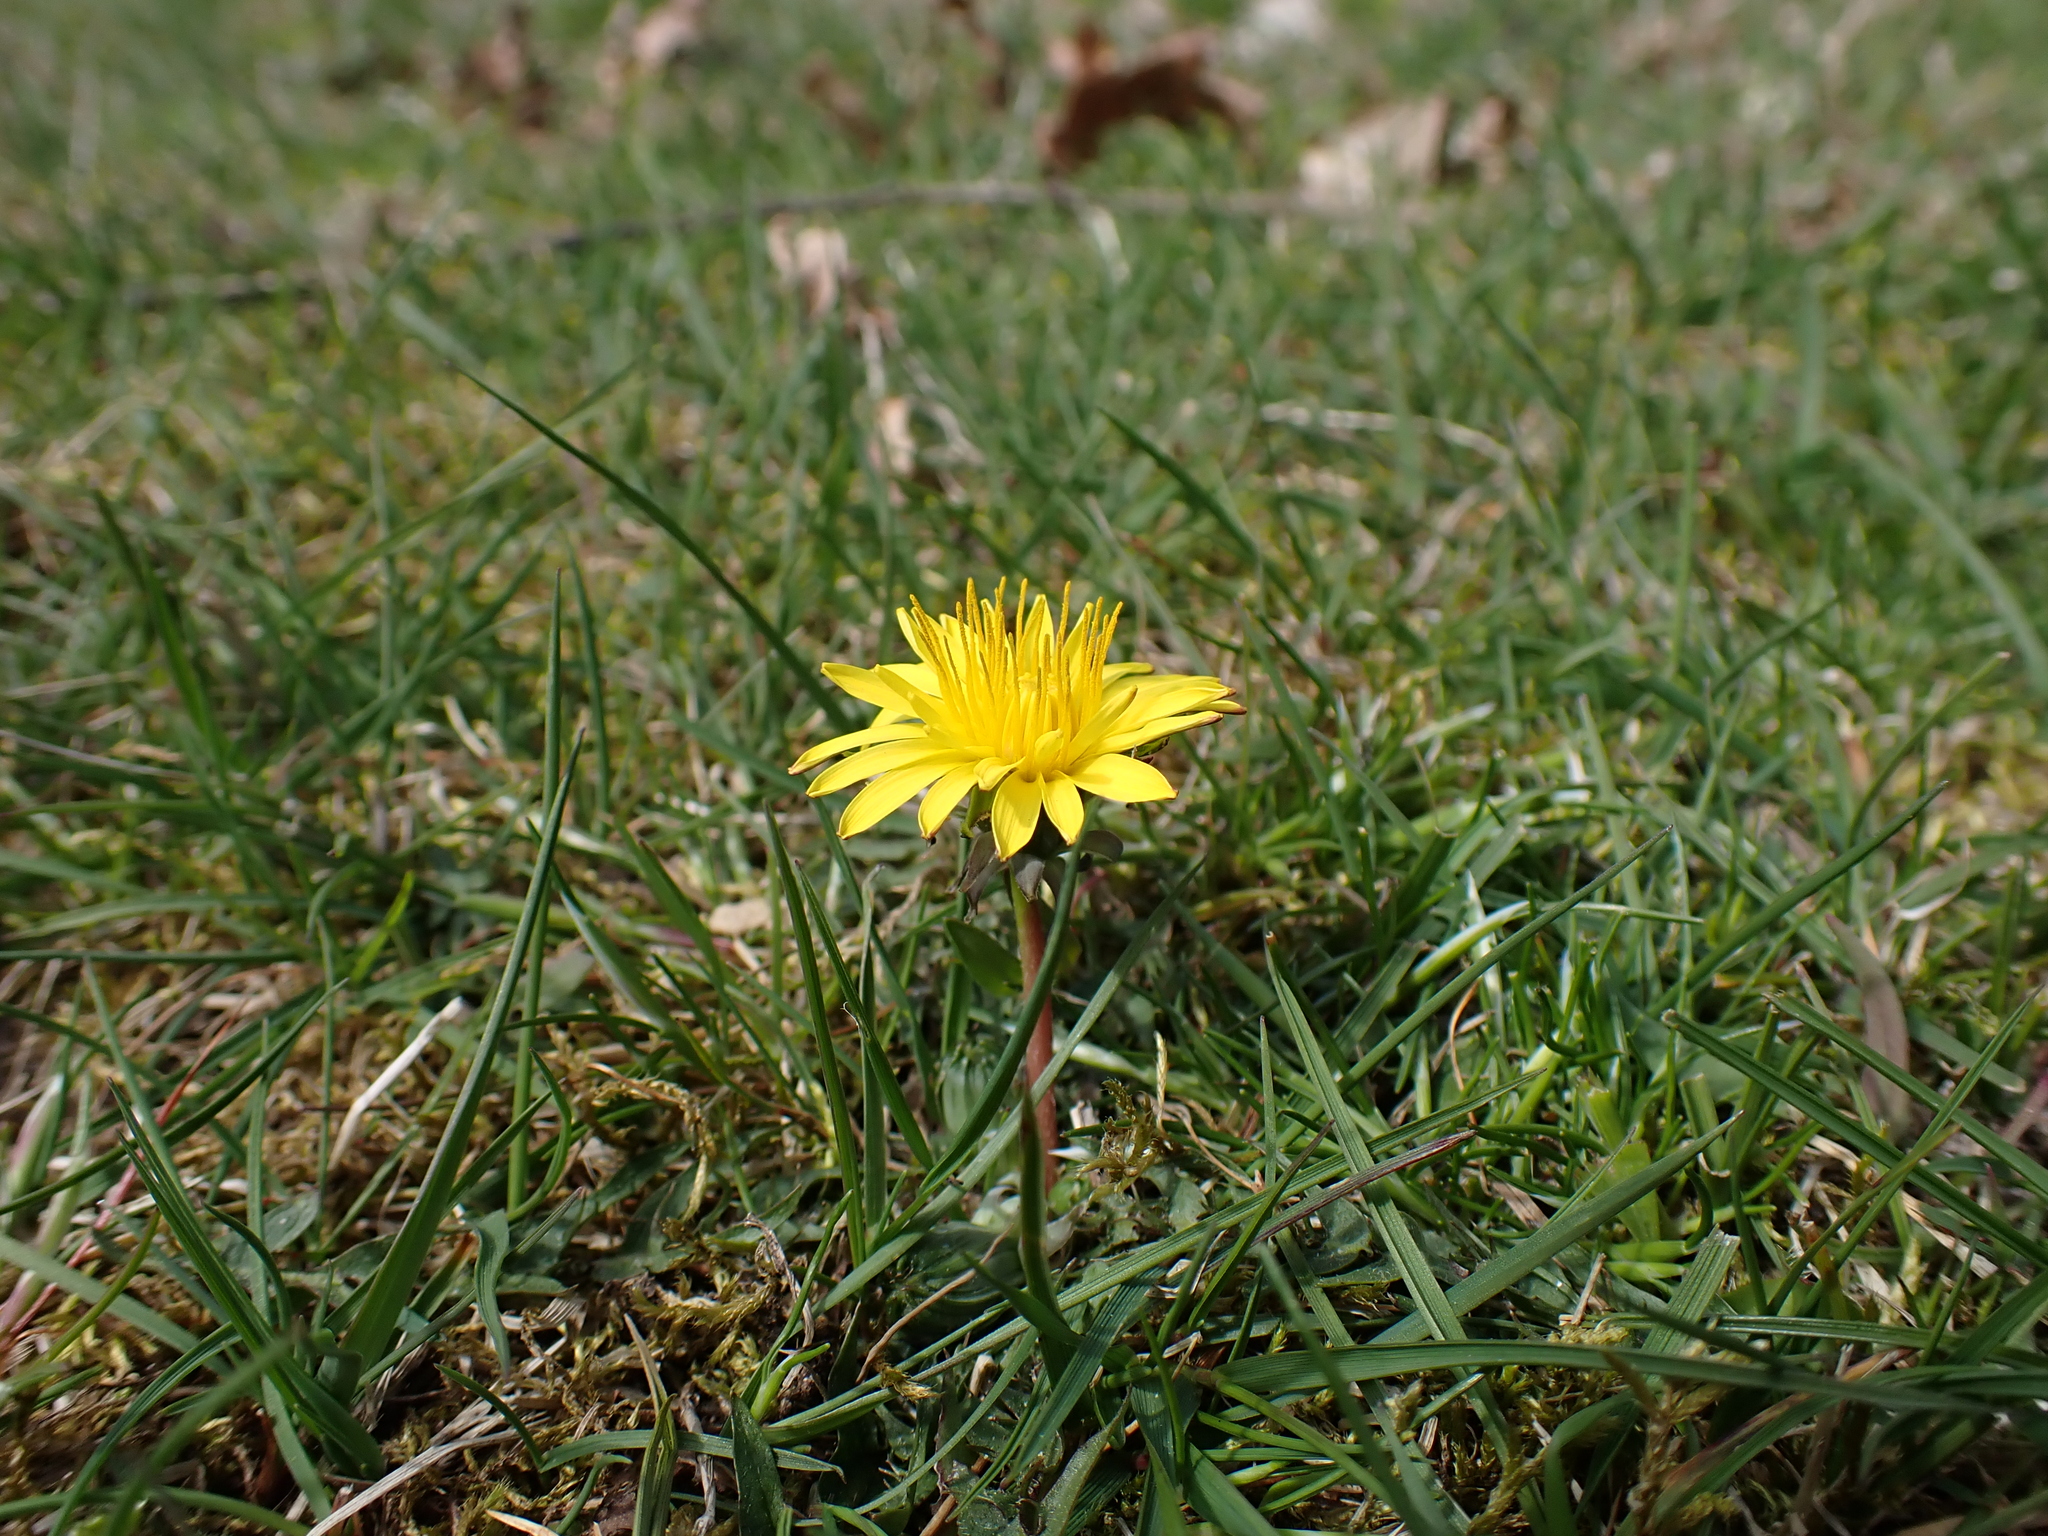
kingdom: Plantae
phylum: Tracheophyta
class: Magnoliopsida
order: Asterales
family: Asteraceae
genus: Taraxacum
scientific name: Taraxacum lacistophyllum
